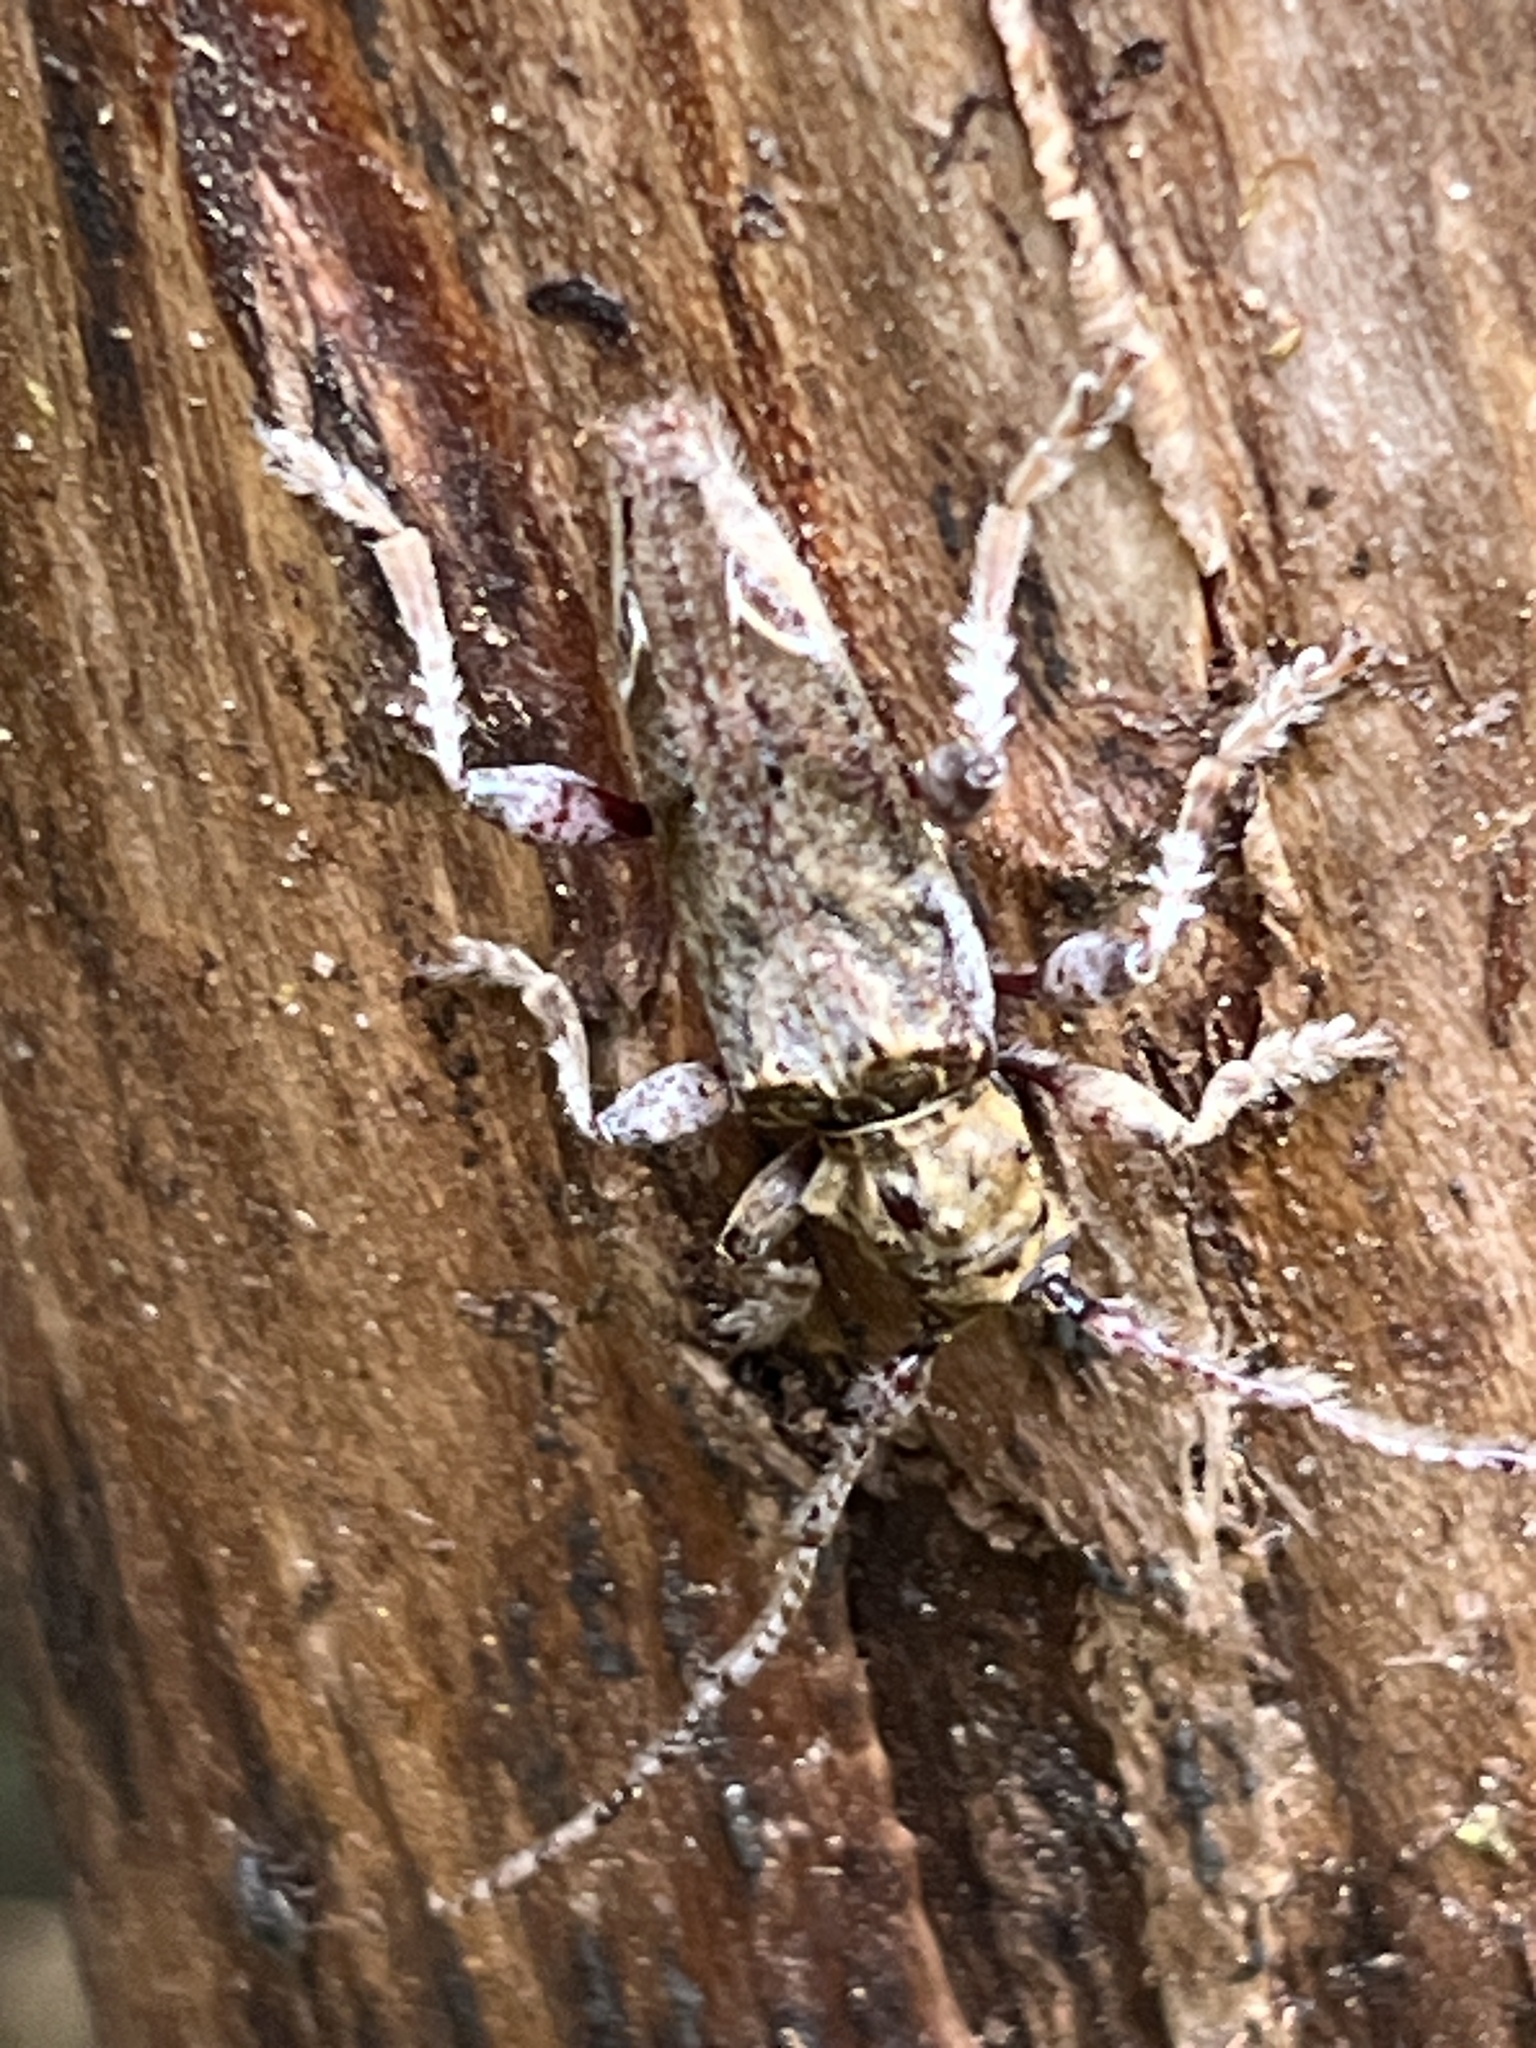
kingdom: Animalia
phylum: Arthropoda
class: Insecta
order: Coleoptera
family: Cerambycidae
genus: Tetrorea
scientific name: Tetrorea cilipes
